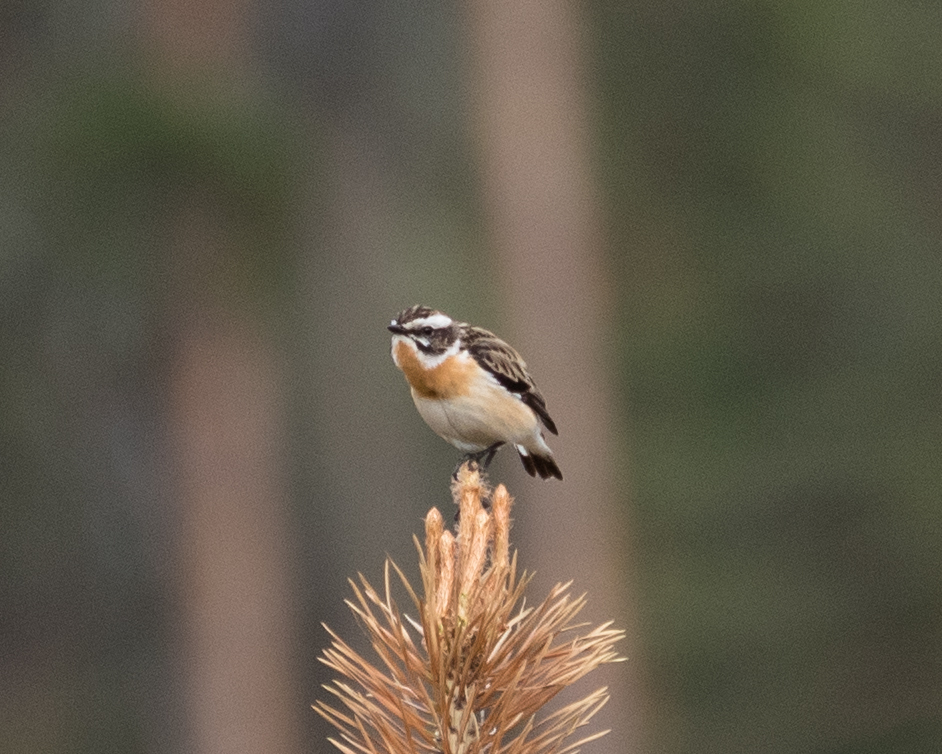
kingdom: Animalia
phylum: Chordata
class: Aves
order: Passeriformes
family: Muscicapidae
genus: Saxicola
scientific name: Saxicola rubetra
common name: Whinchat
